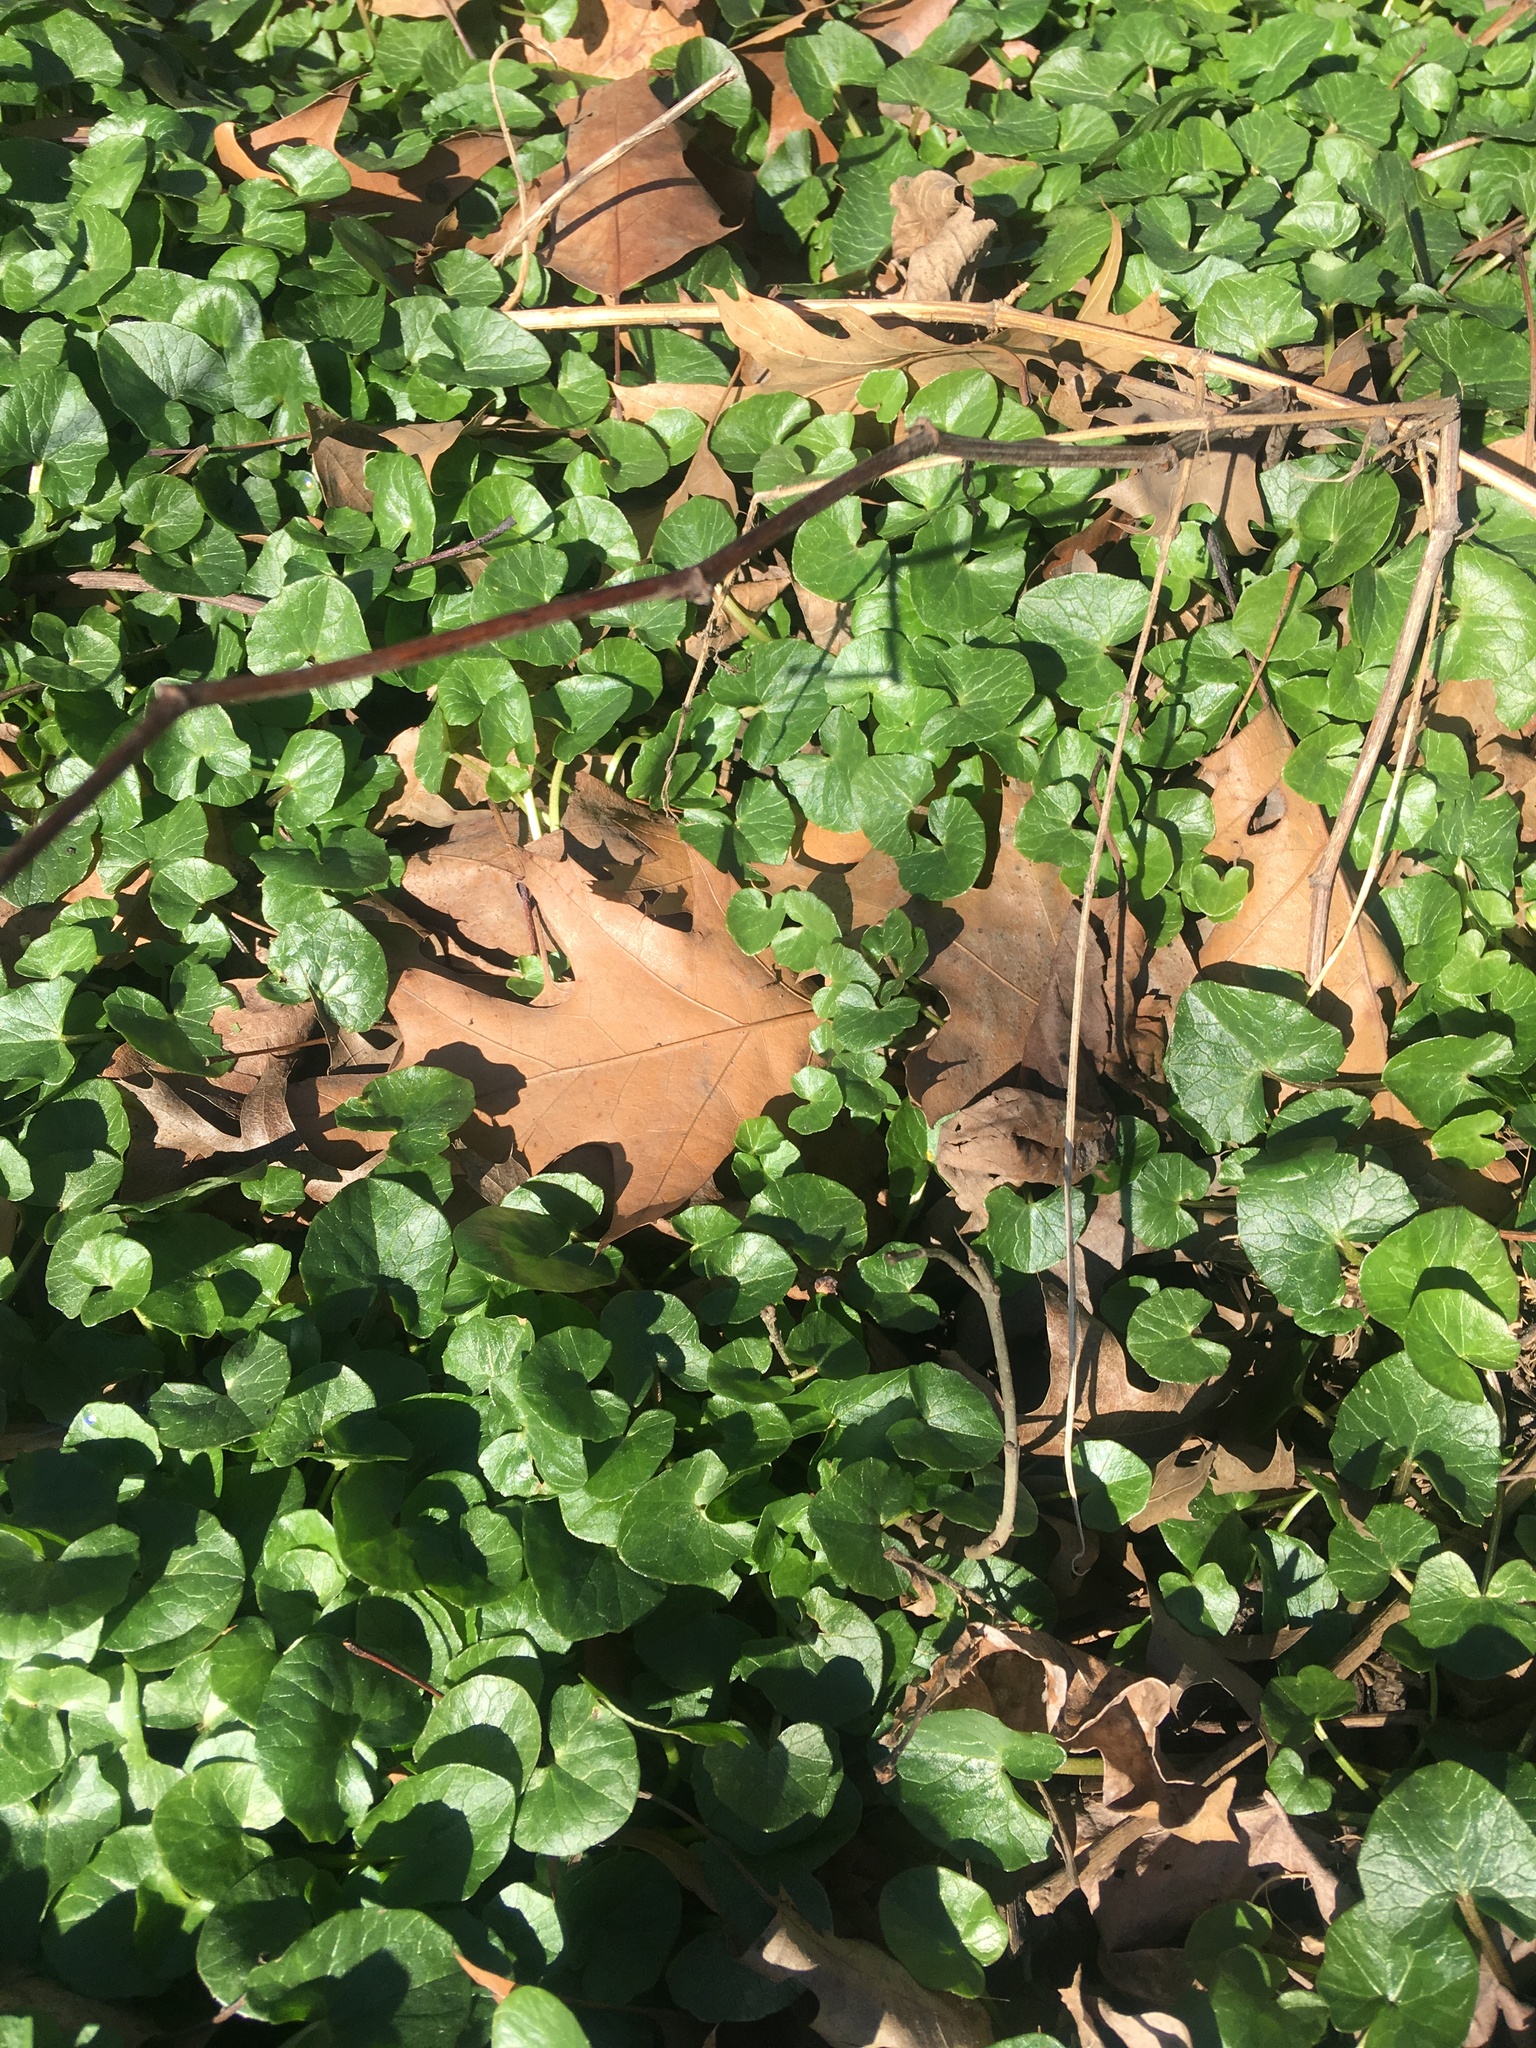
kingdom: Plantae
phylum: Tracheophyta
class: Magnoliopsida
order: Ranunculales
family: Ranunculaceae
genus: Ficaria
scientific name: Ficaria verna
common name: Lesser celandine
